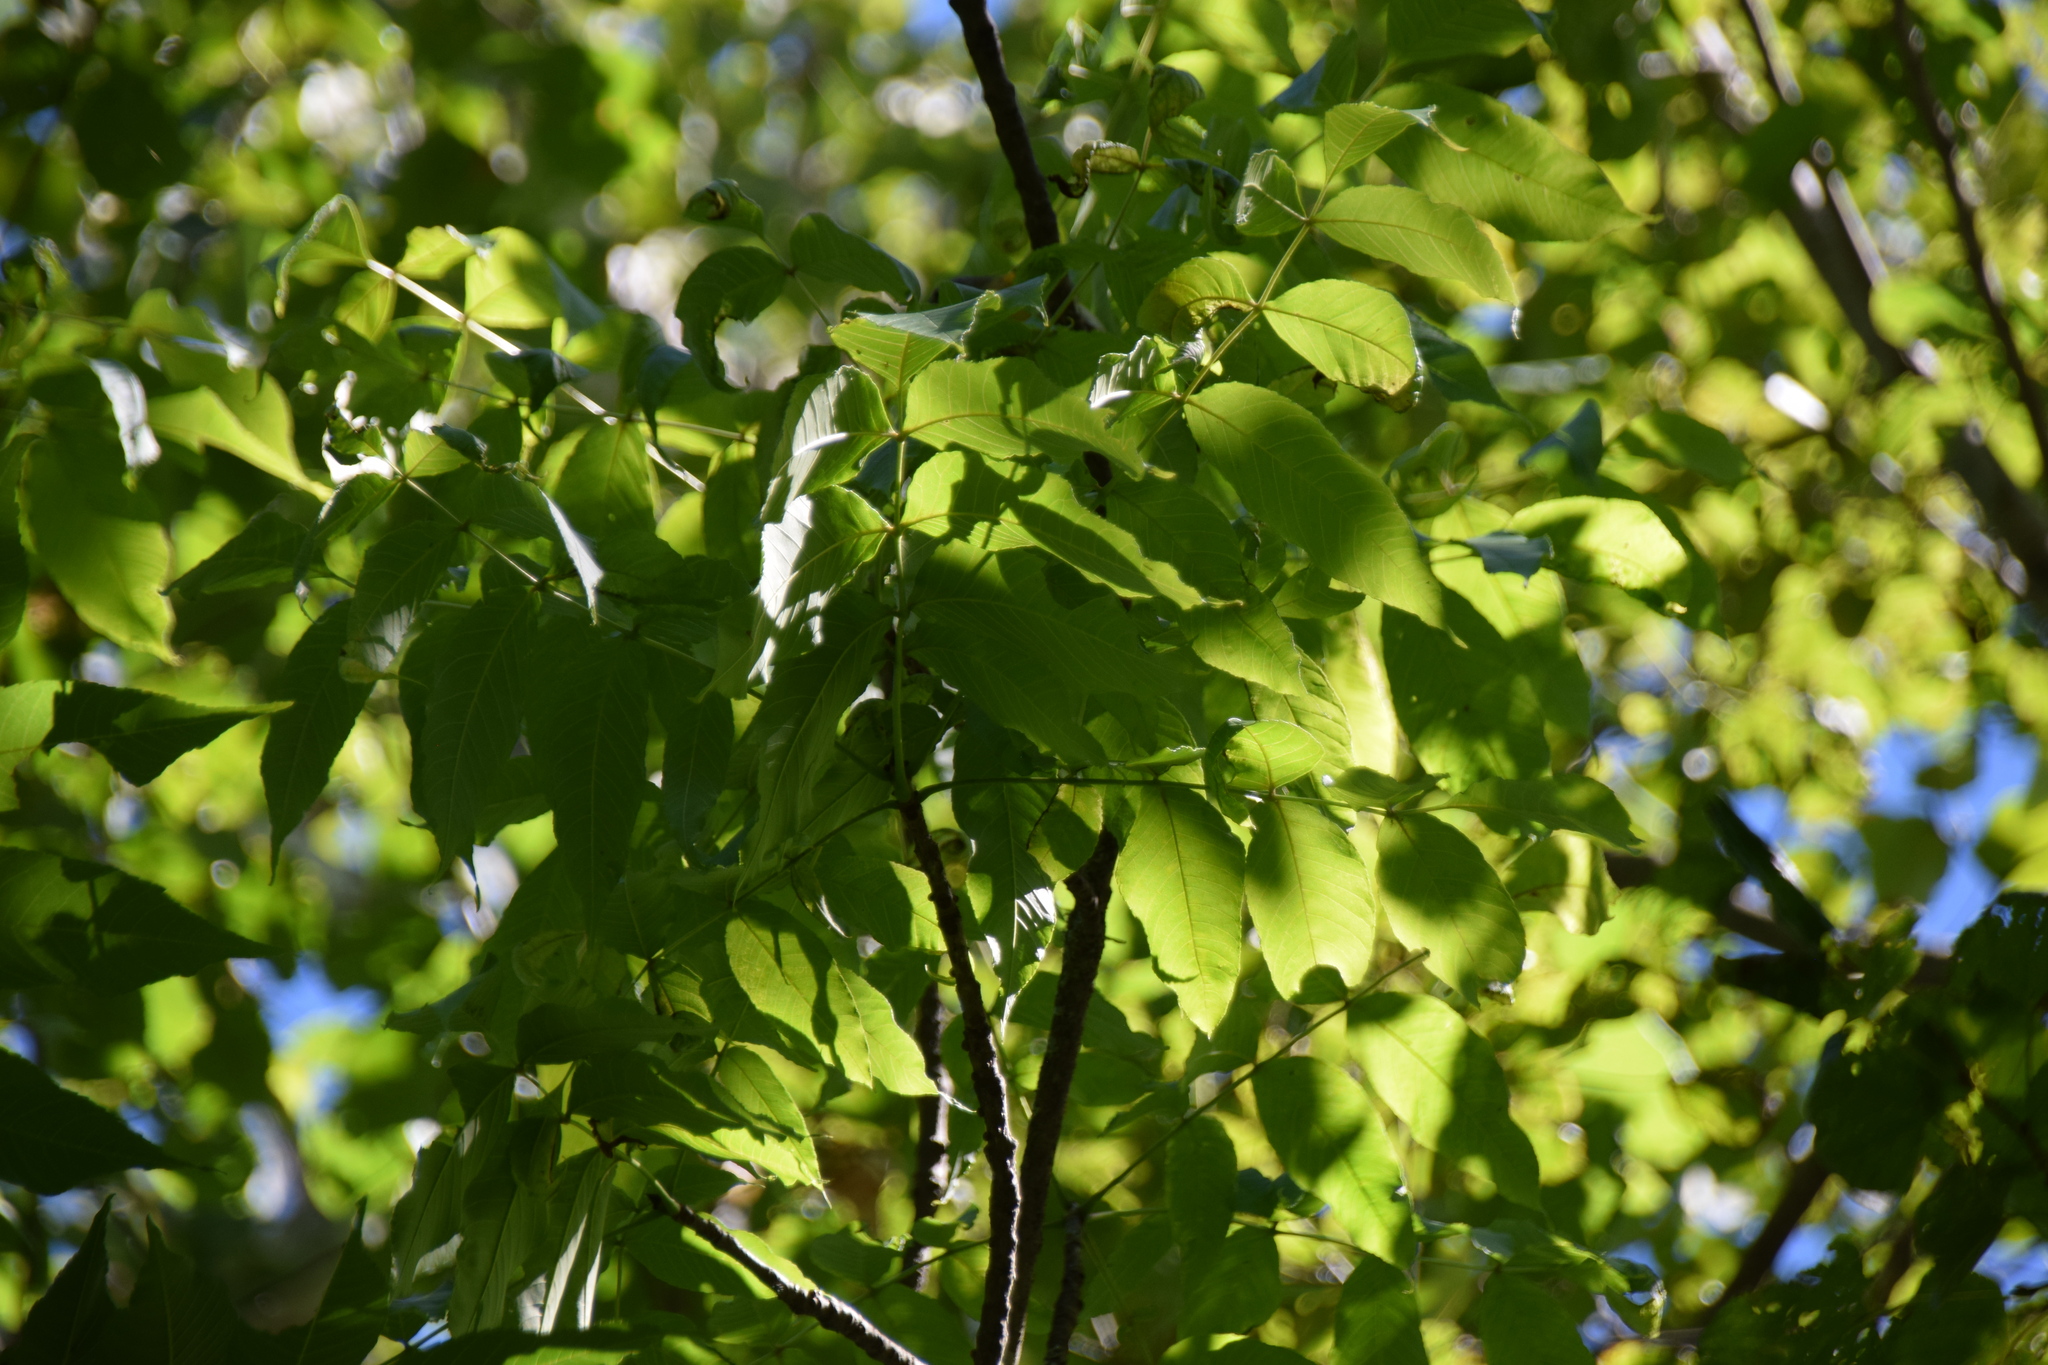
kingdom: Plantae
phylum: Tracheophyta
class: Magnoliopsida
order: Lamiales
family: Oleaceae
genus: Fraxinus
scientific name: Fraxinus nigra
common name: Black ash
